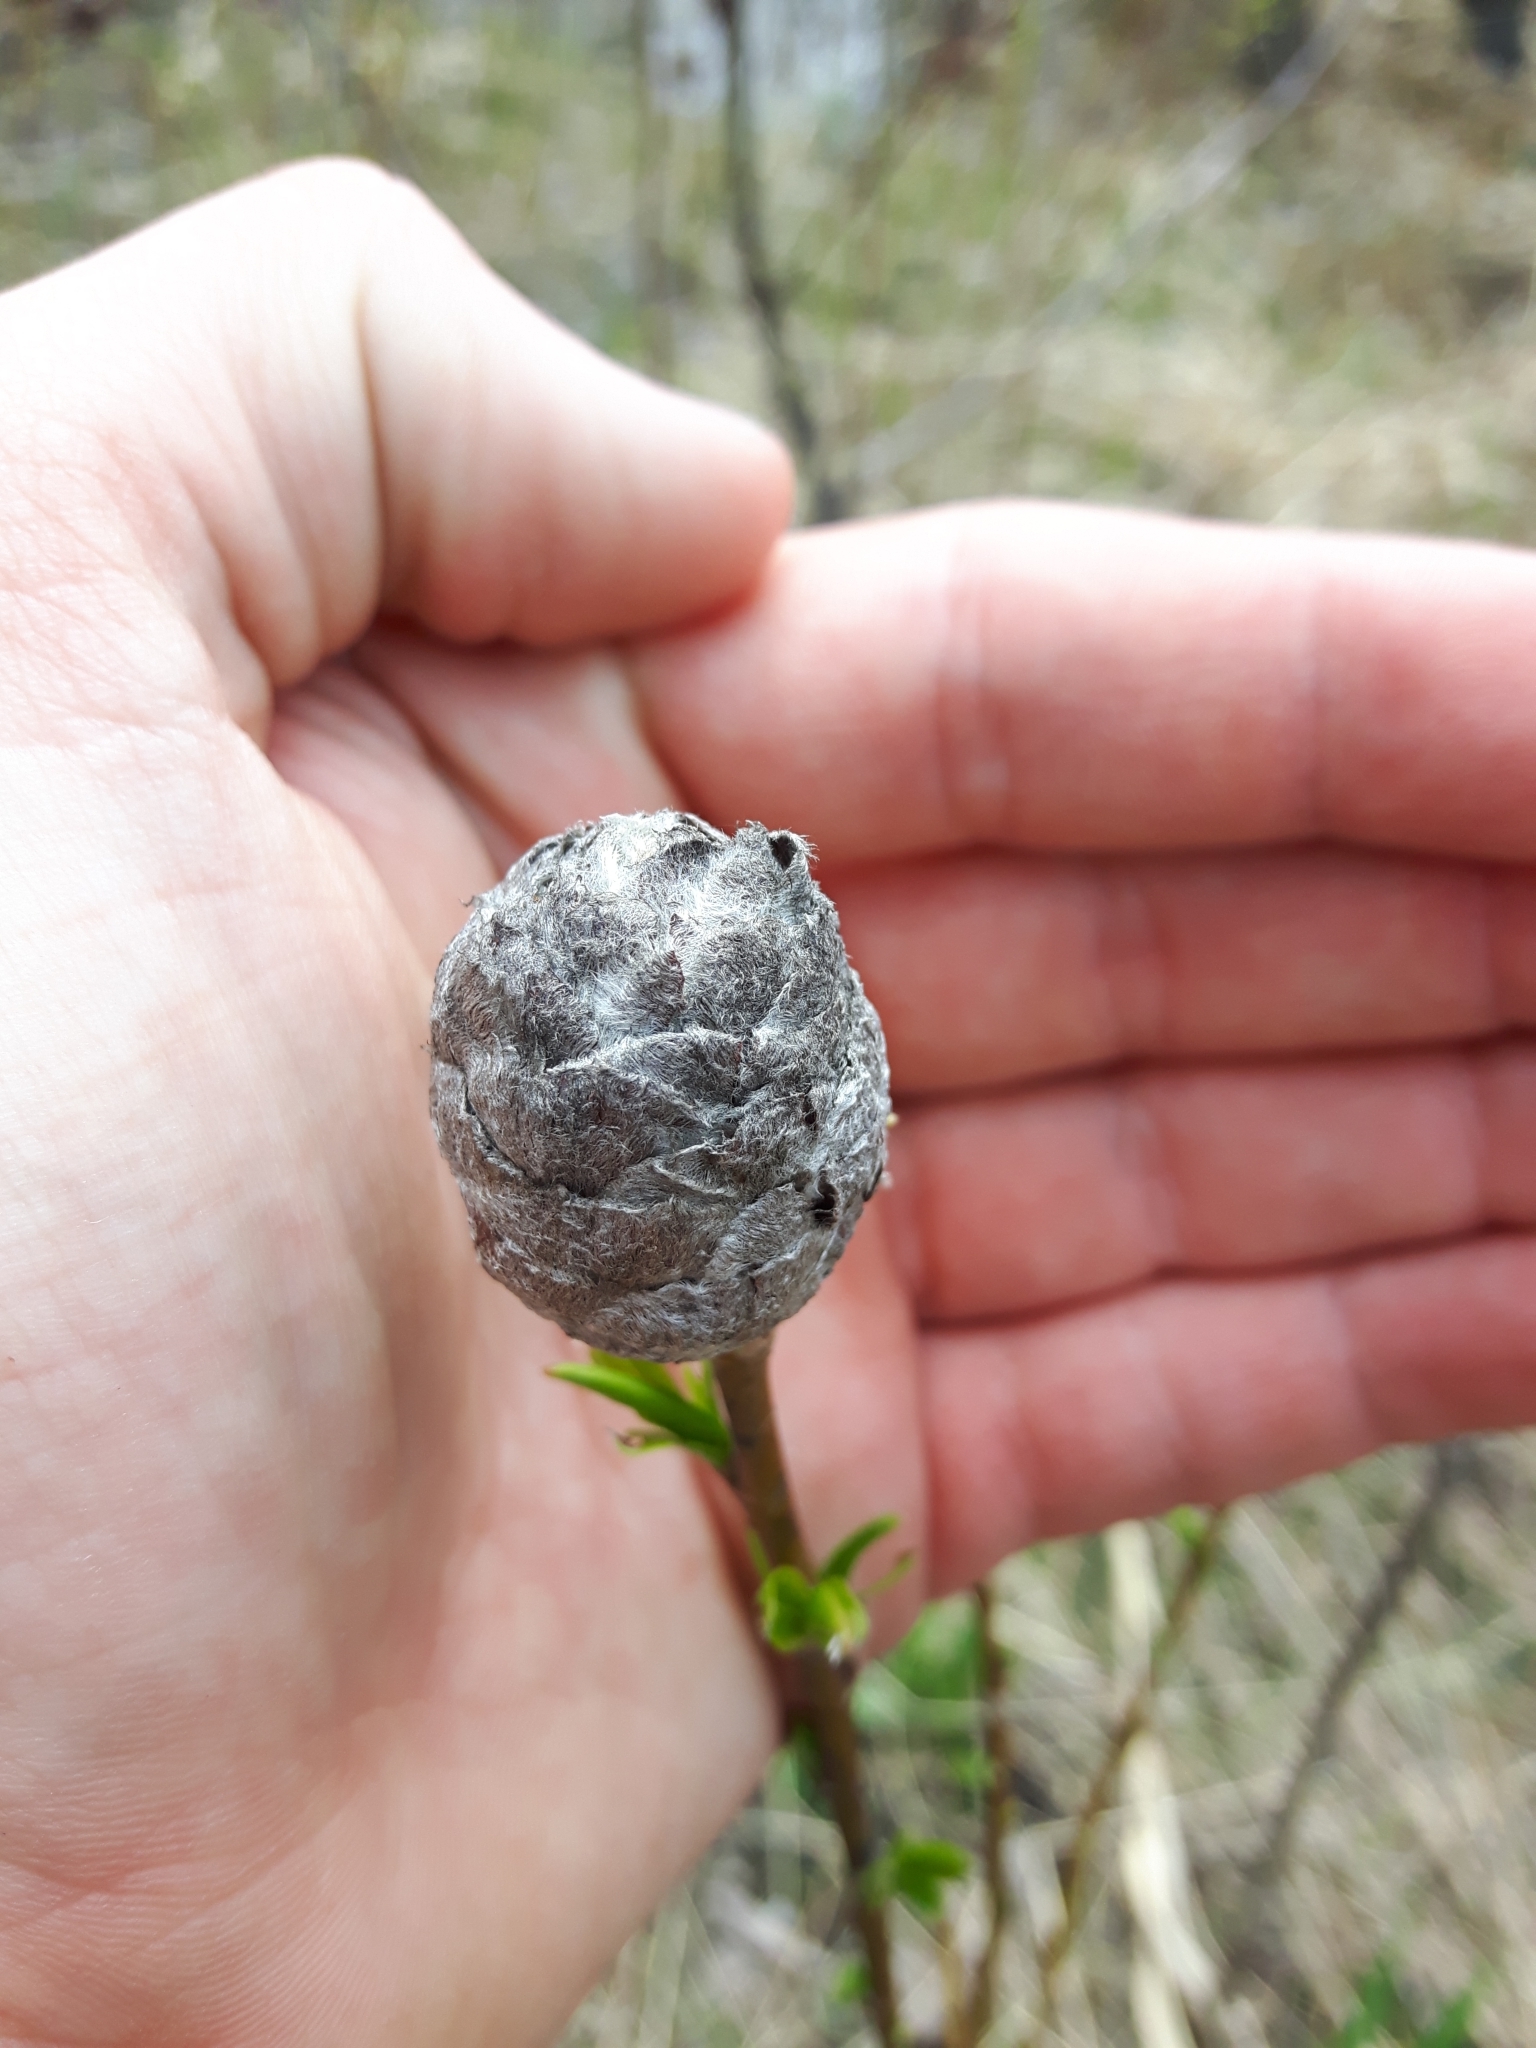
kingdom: Animalia
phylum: Arthropoda
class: Insecta
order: Diptera
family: Cecidomyiidae
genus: Rabdophaga
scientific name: Rabdophaga strobiloides
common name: Willow pinecone gall midge
